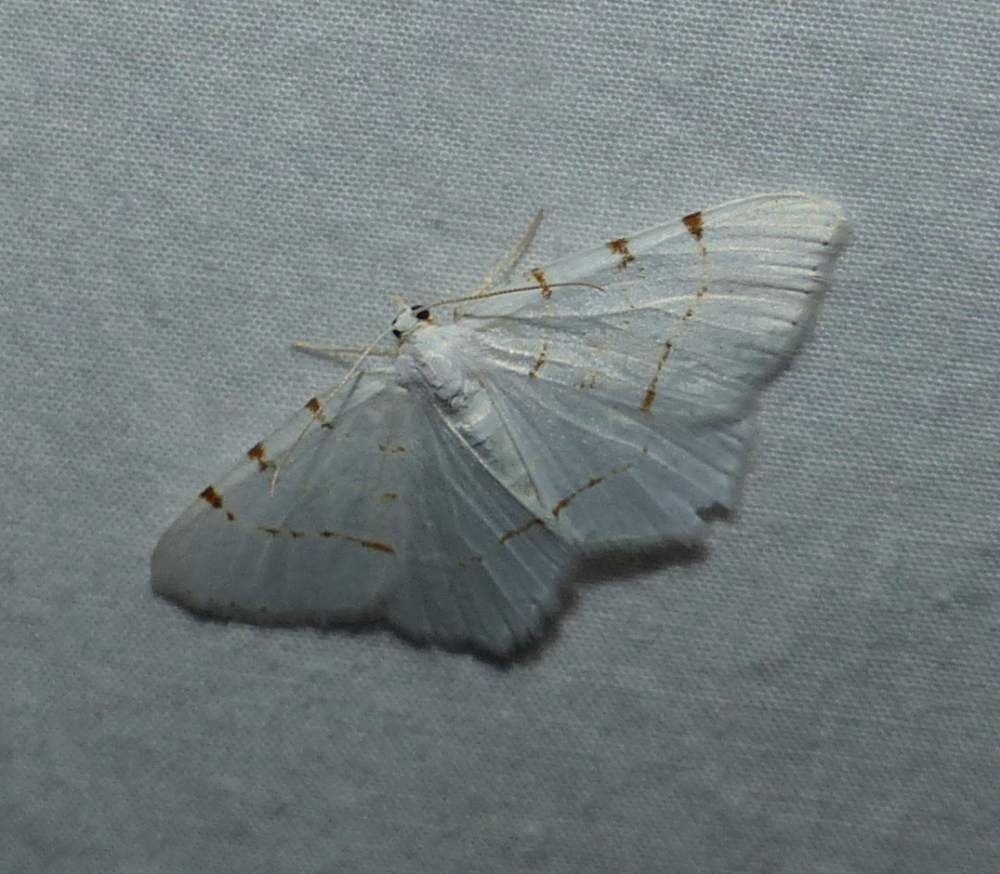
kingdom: Animalia
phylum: Arthropoda
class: Insecta
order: Lepidoptera
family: Geometridae
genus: Macaria
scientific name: Macaria pustularia
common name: Lesser maple spanworm moth
